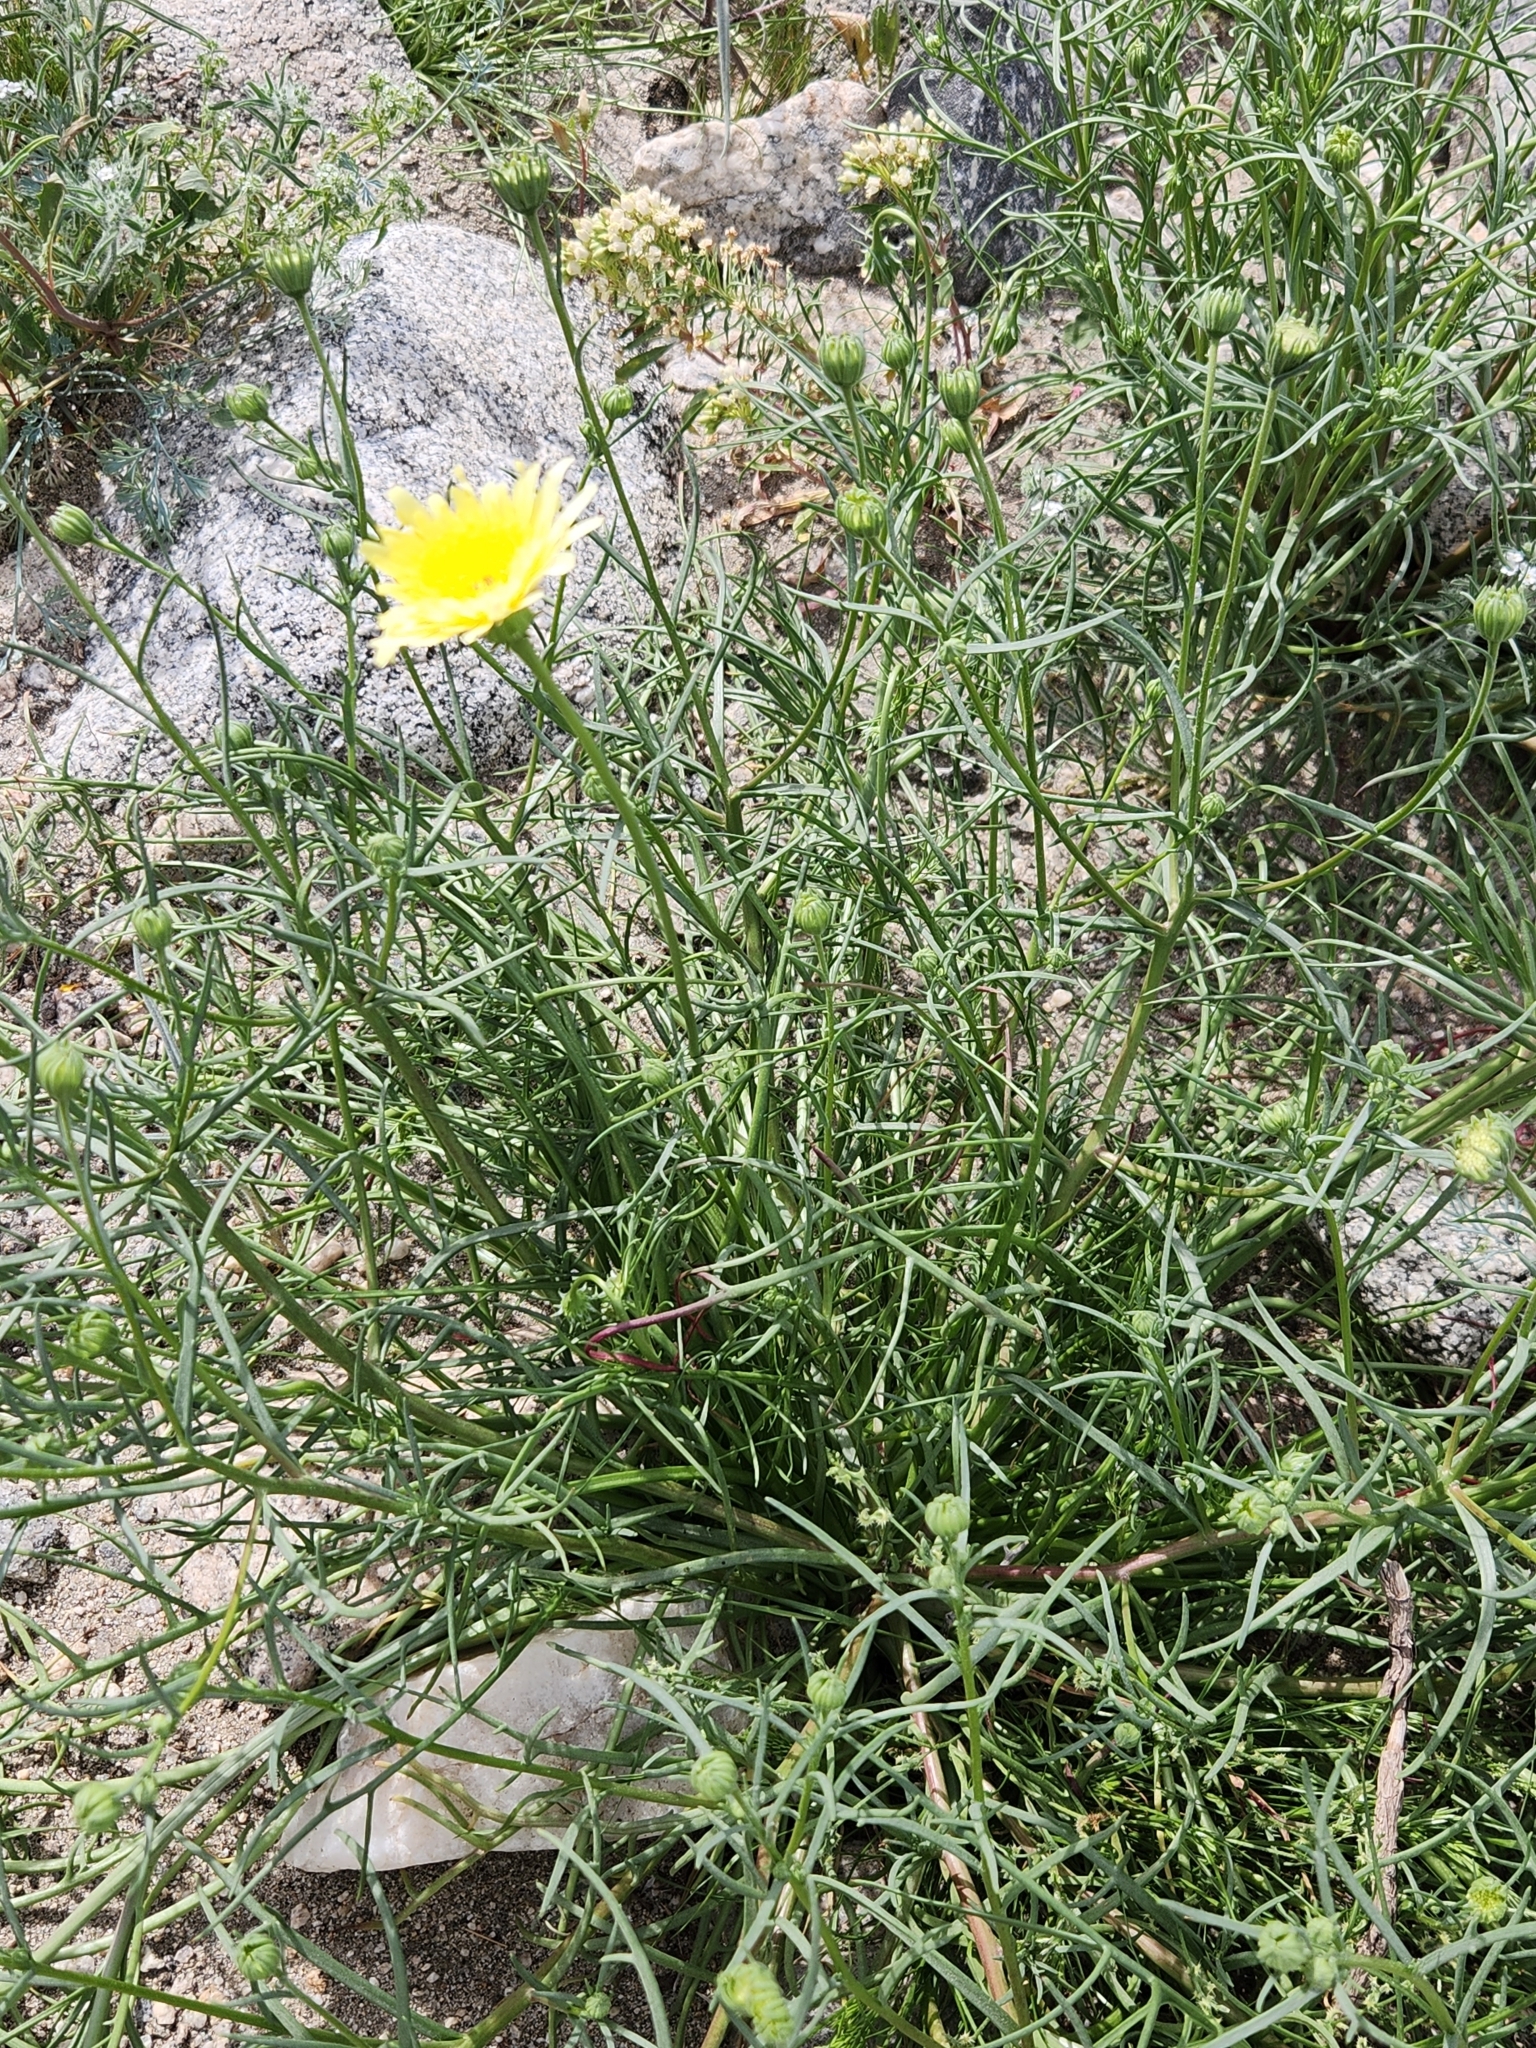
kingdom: Plantae
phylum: Tracheophyta
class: Magnoliopsida
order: Asterales
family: Asteraceae
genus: Malacothrix
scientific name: Malacothrix glabrata
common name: Smooth desert-dandelion
